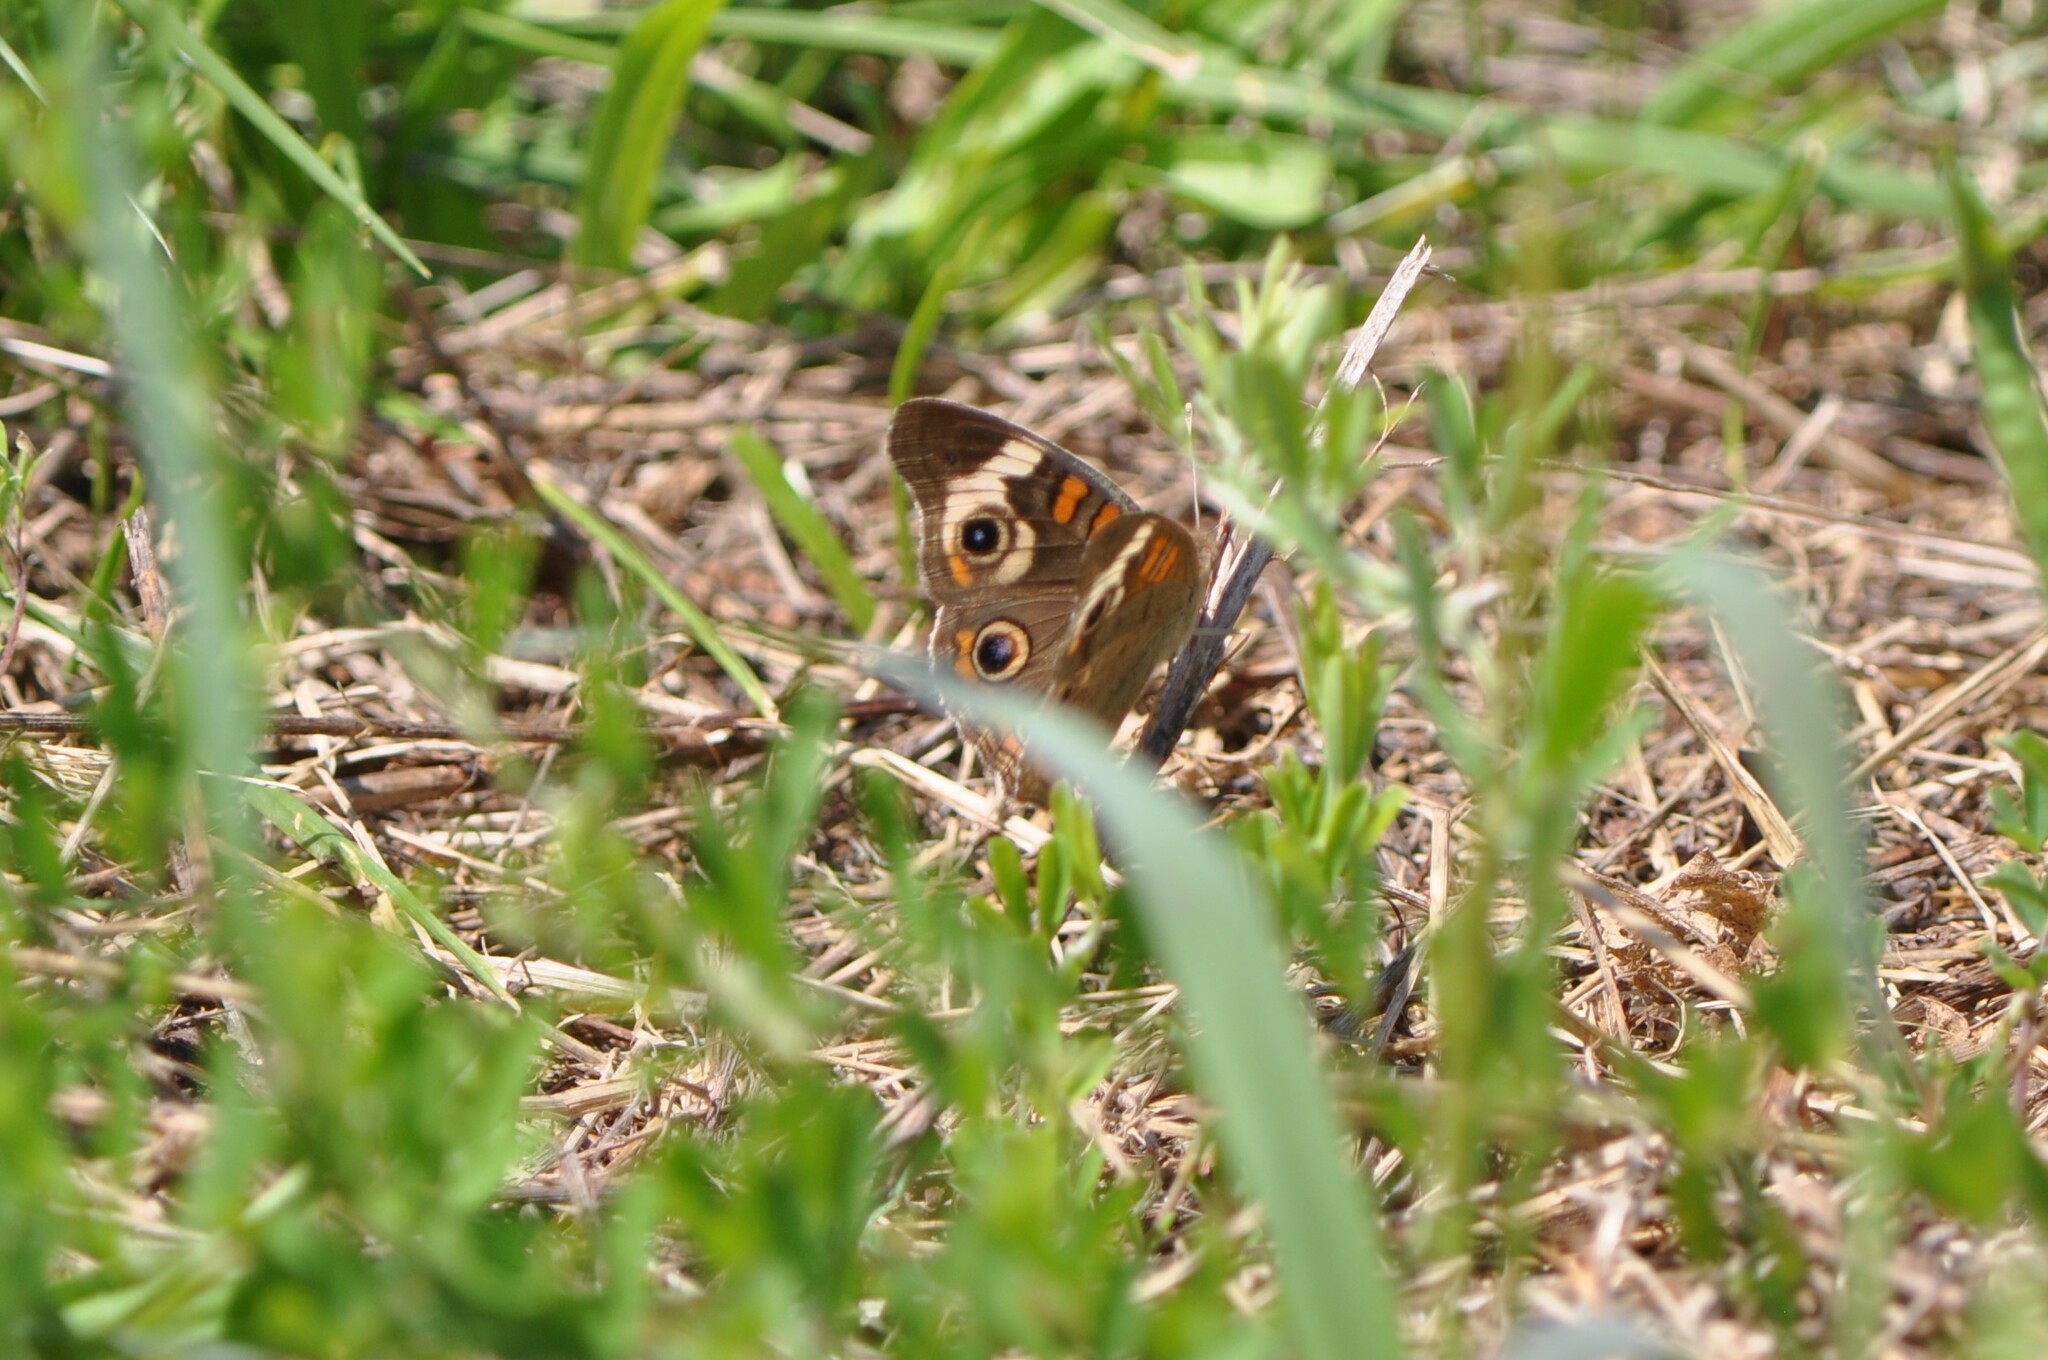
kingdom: Animalia
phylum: Arthropoda
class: Insecta
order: Lepidoptera
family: Nymphalidae
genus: Junonia
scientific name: Junonia coenia
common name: Common buckeye
